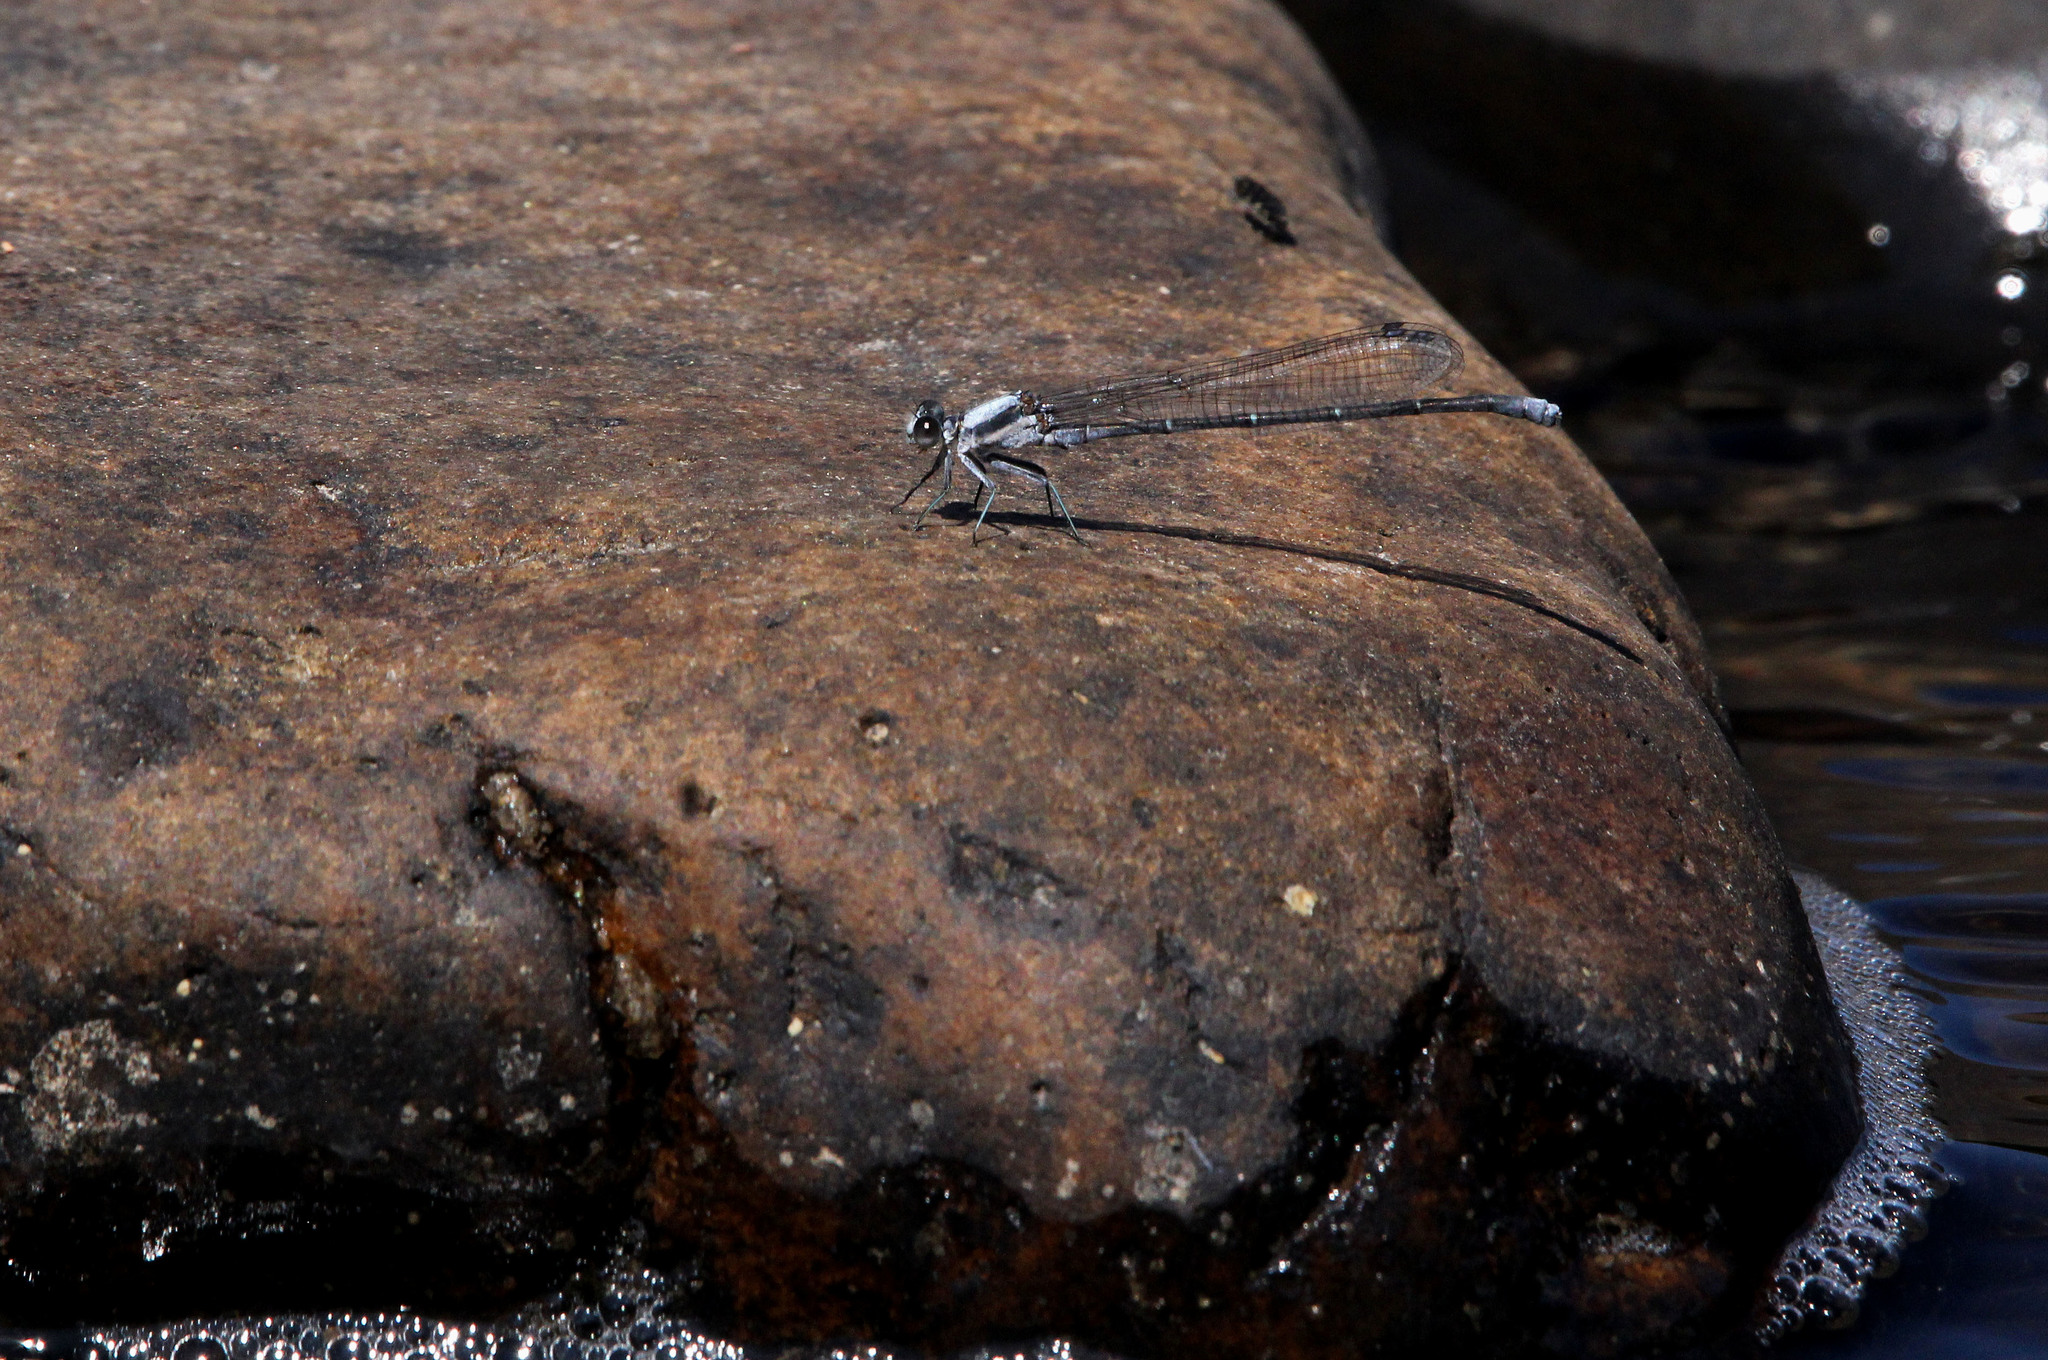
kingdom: Animalia
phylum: Arthropoda
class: Insecta
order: Odonata
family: Coenagrionidae
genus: Argia
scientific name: Argia moesta
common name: Powdered dancer
